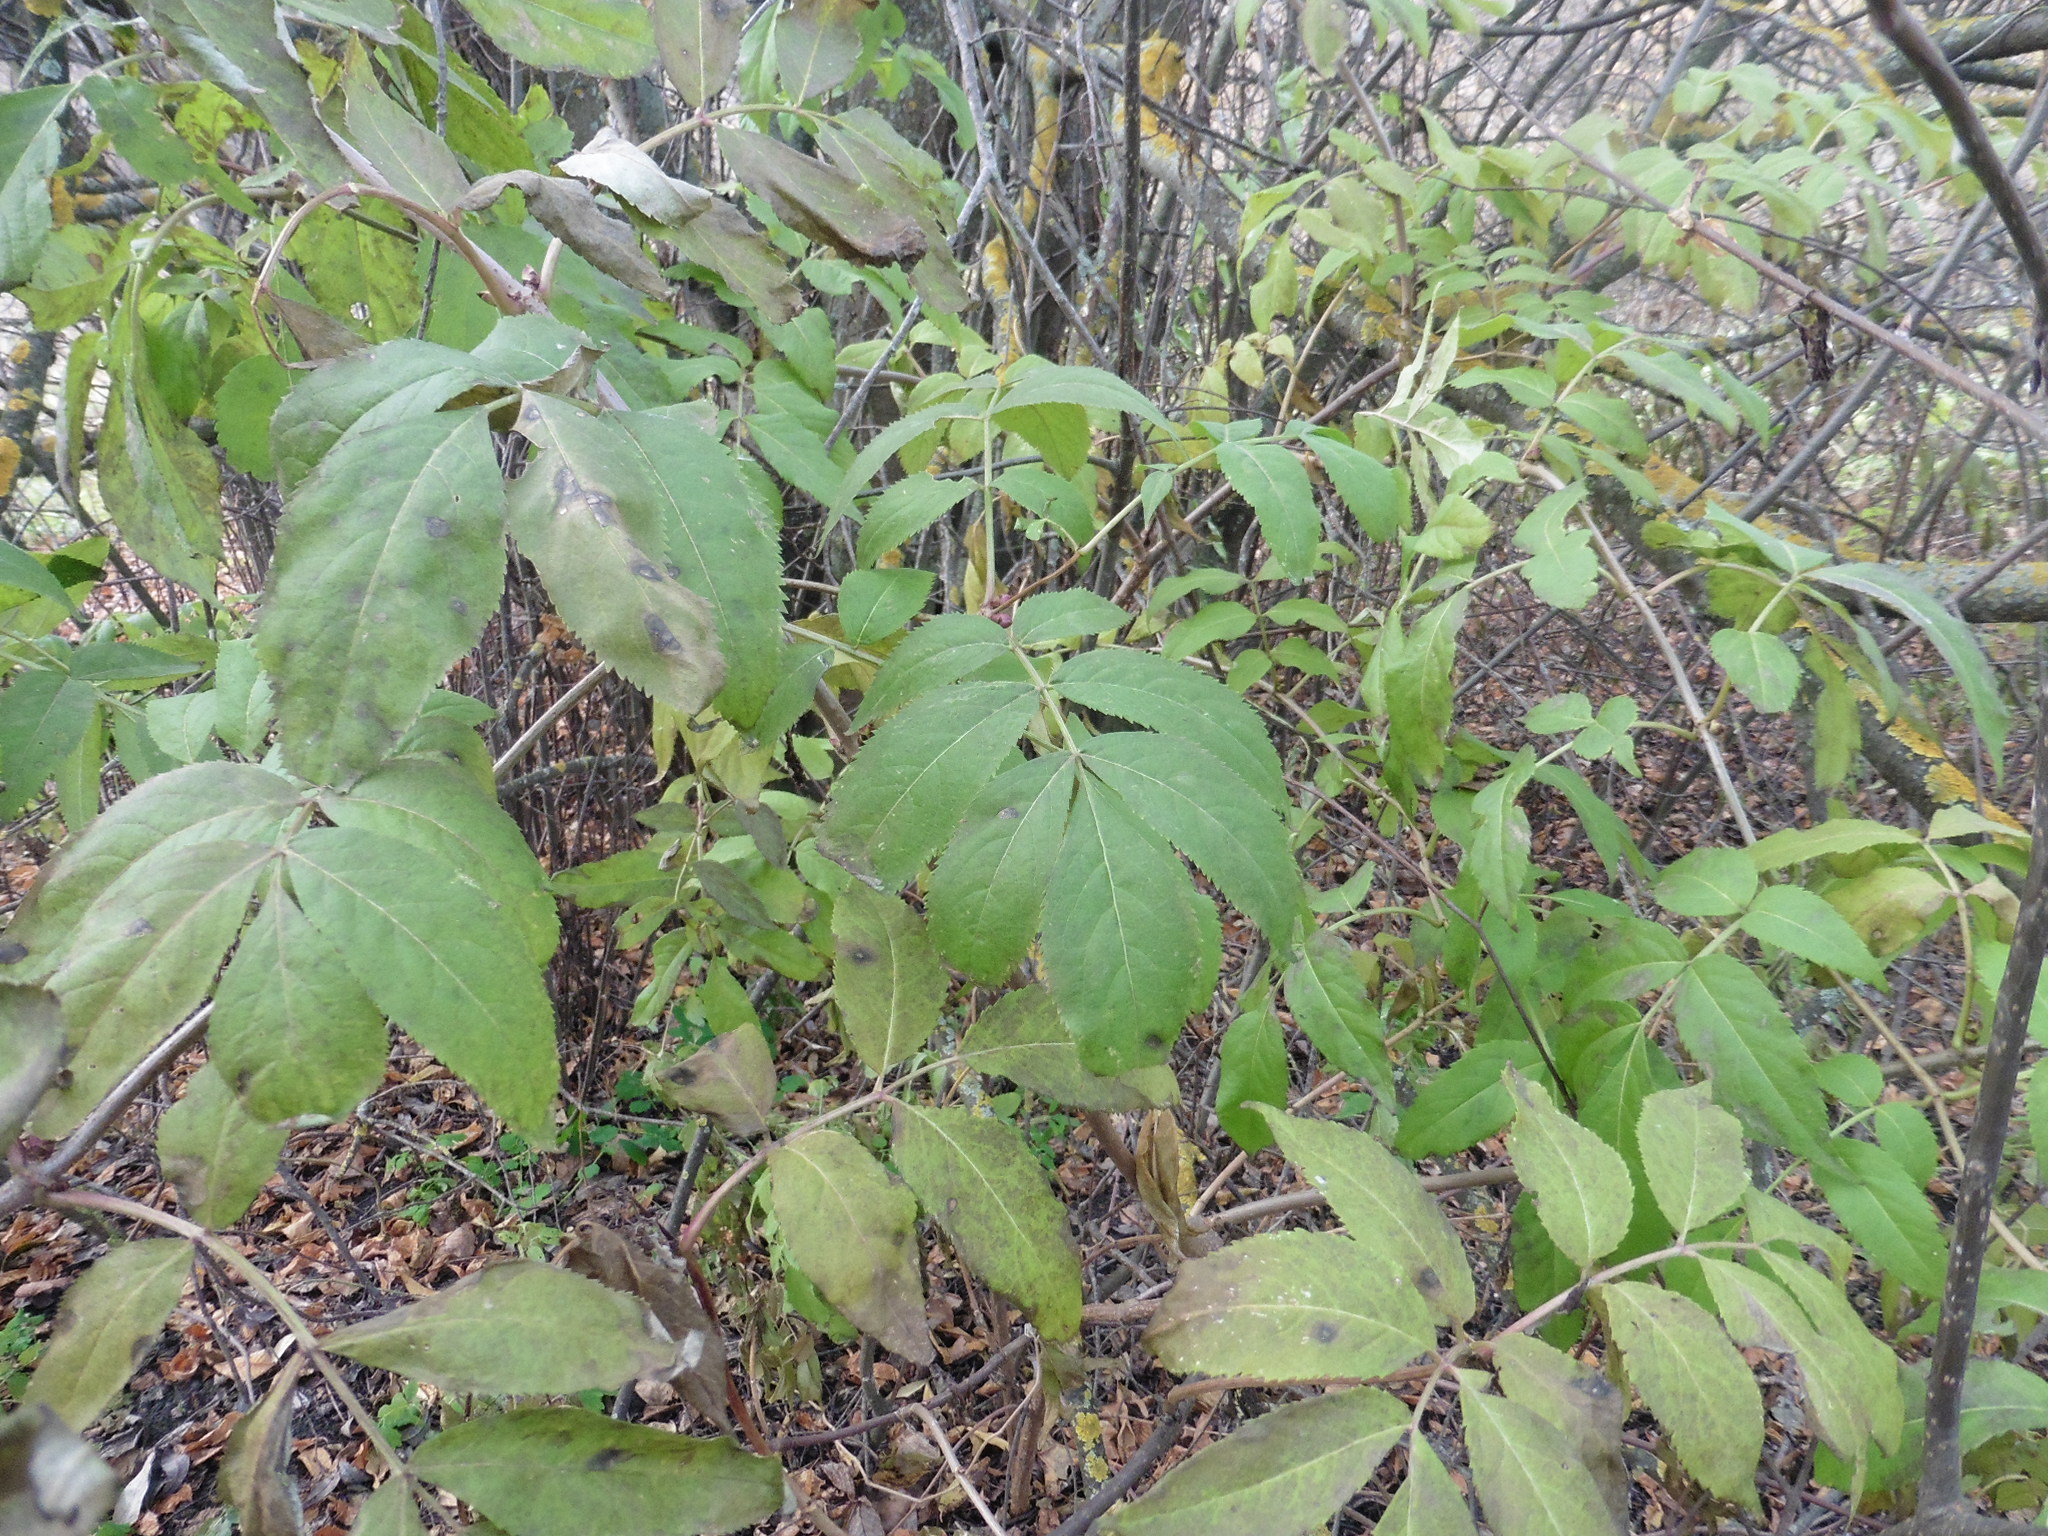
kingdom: Plantae
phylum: Tracheophyta
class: Magnoliopsida
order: Dipsacales
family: Viburnaceae
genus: Sambucus
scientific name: Sambucus racemosa
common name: Red-berried elder
